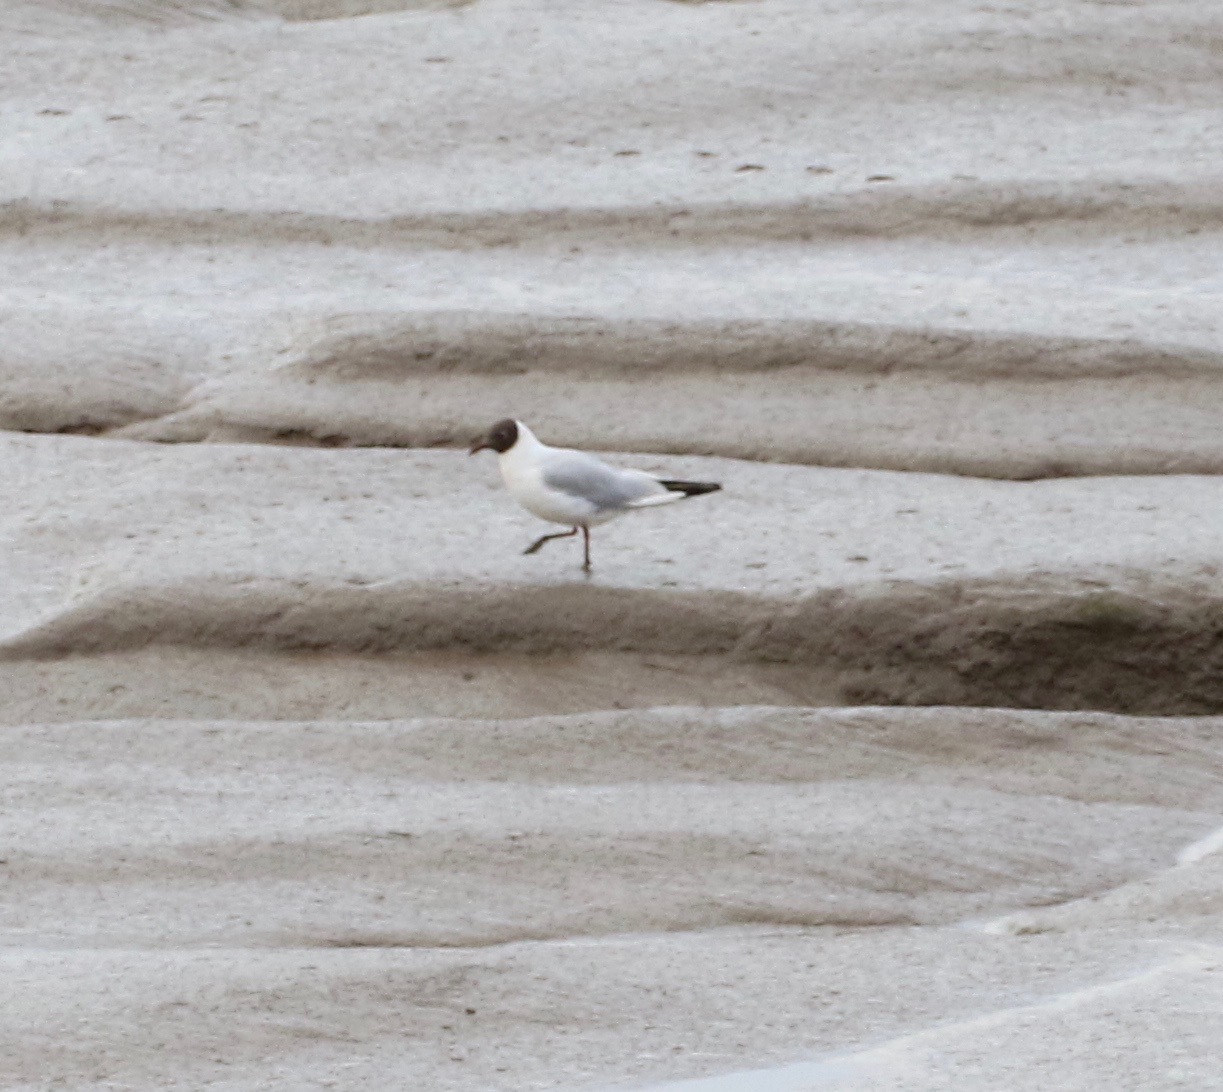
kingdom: Animalia
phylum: Chordata
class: Aves
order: Charadriiformes
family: Laridae
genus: Chroicocephalus
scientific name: Chroicocephalus ridibundus
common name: Black-headed gull
